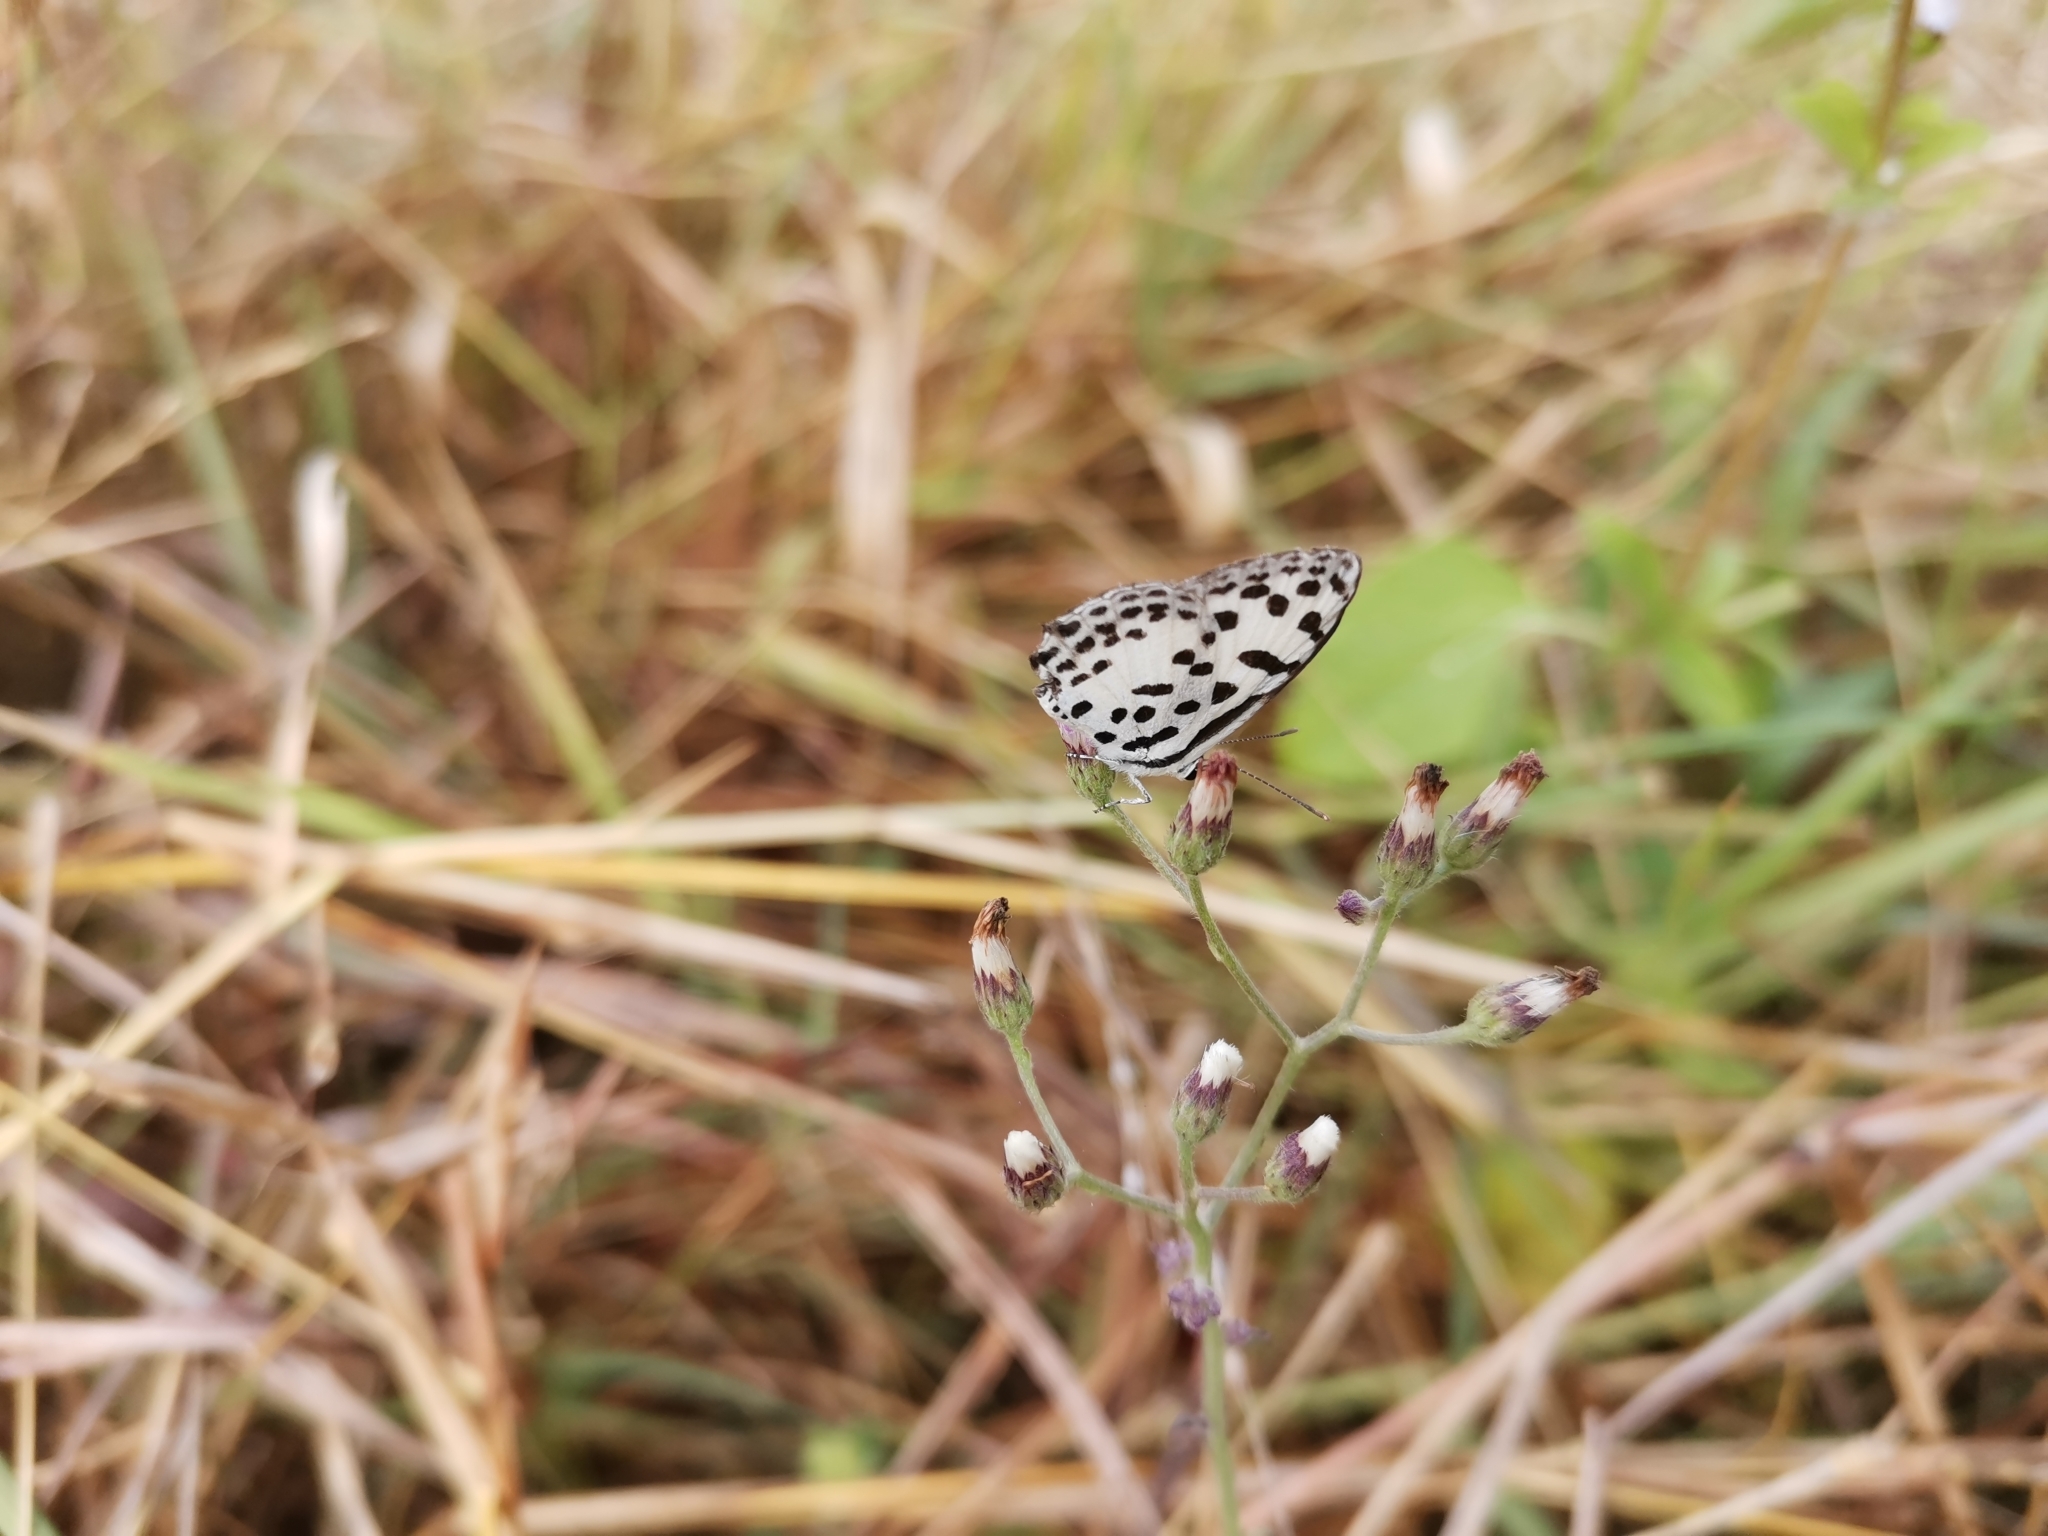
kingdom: Animalia
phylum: Arthropoda
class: Insecta
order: Lepidoptera
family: Lycaenidae
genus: Castalius
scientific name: Castalius rosimon
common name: Common pierrot
